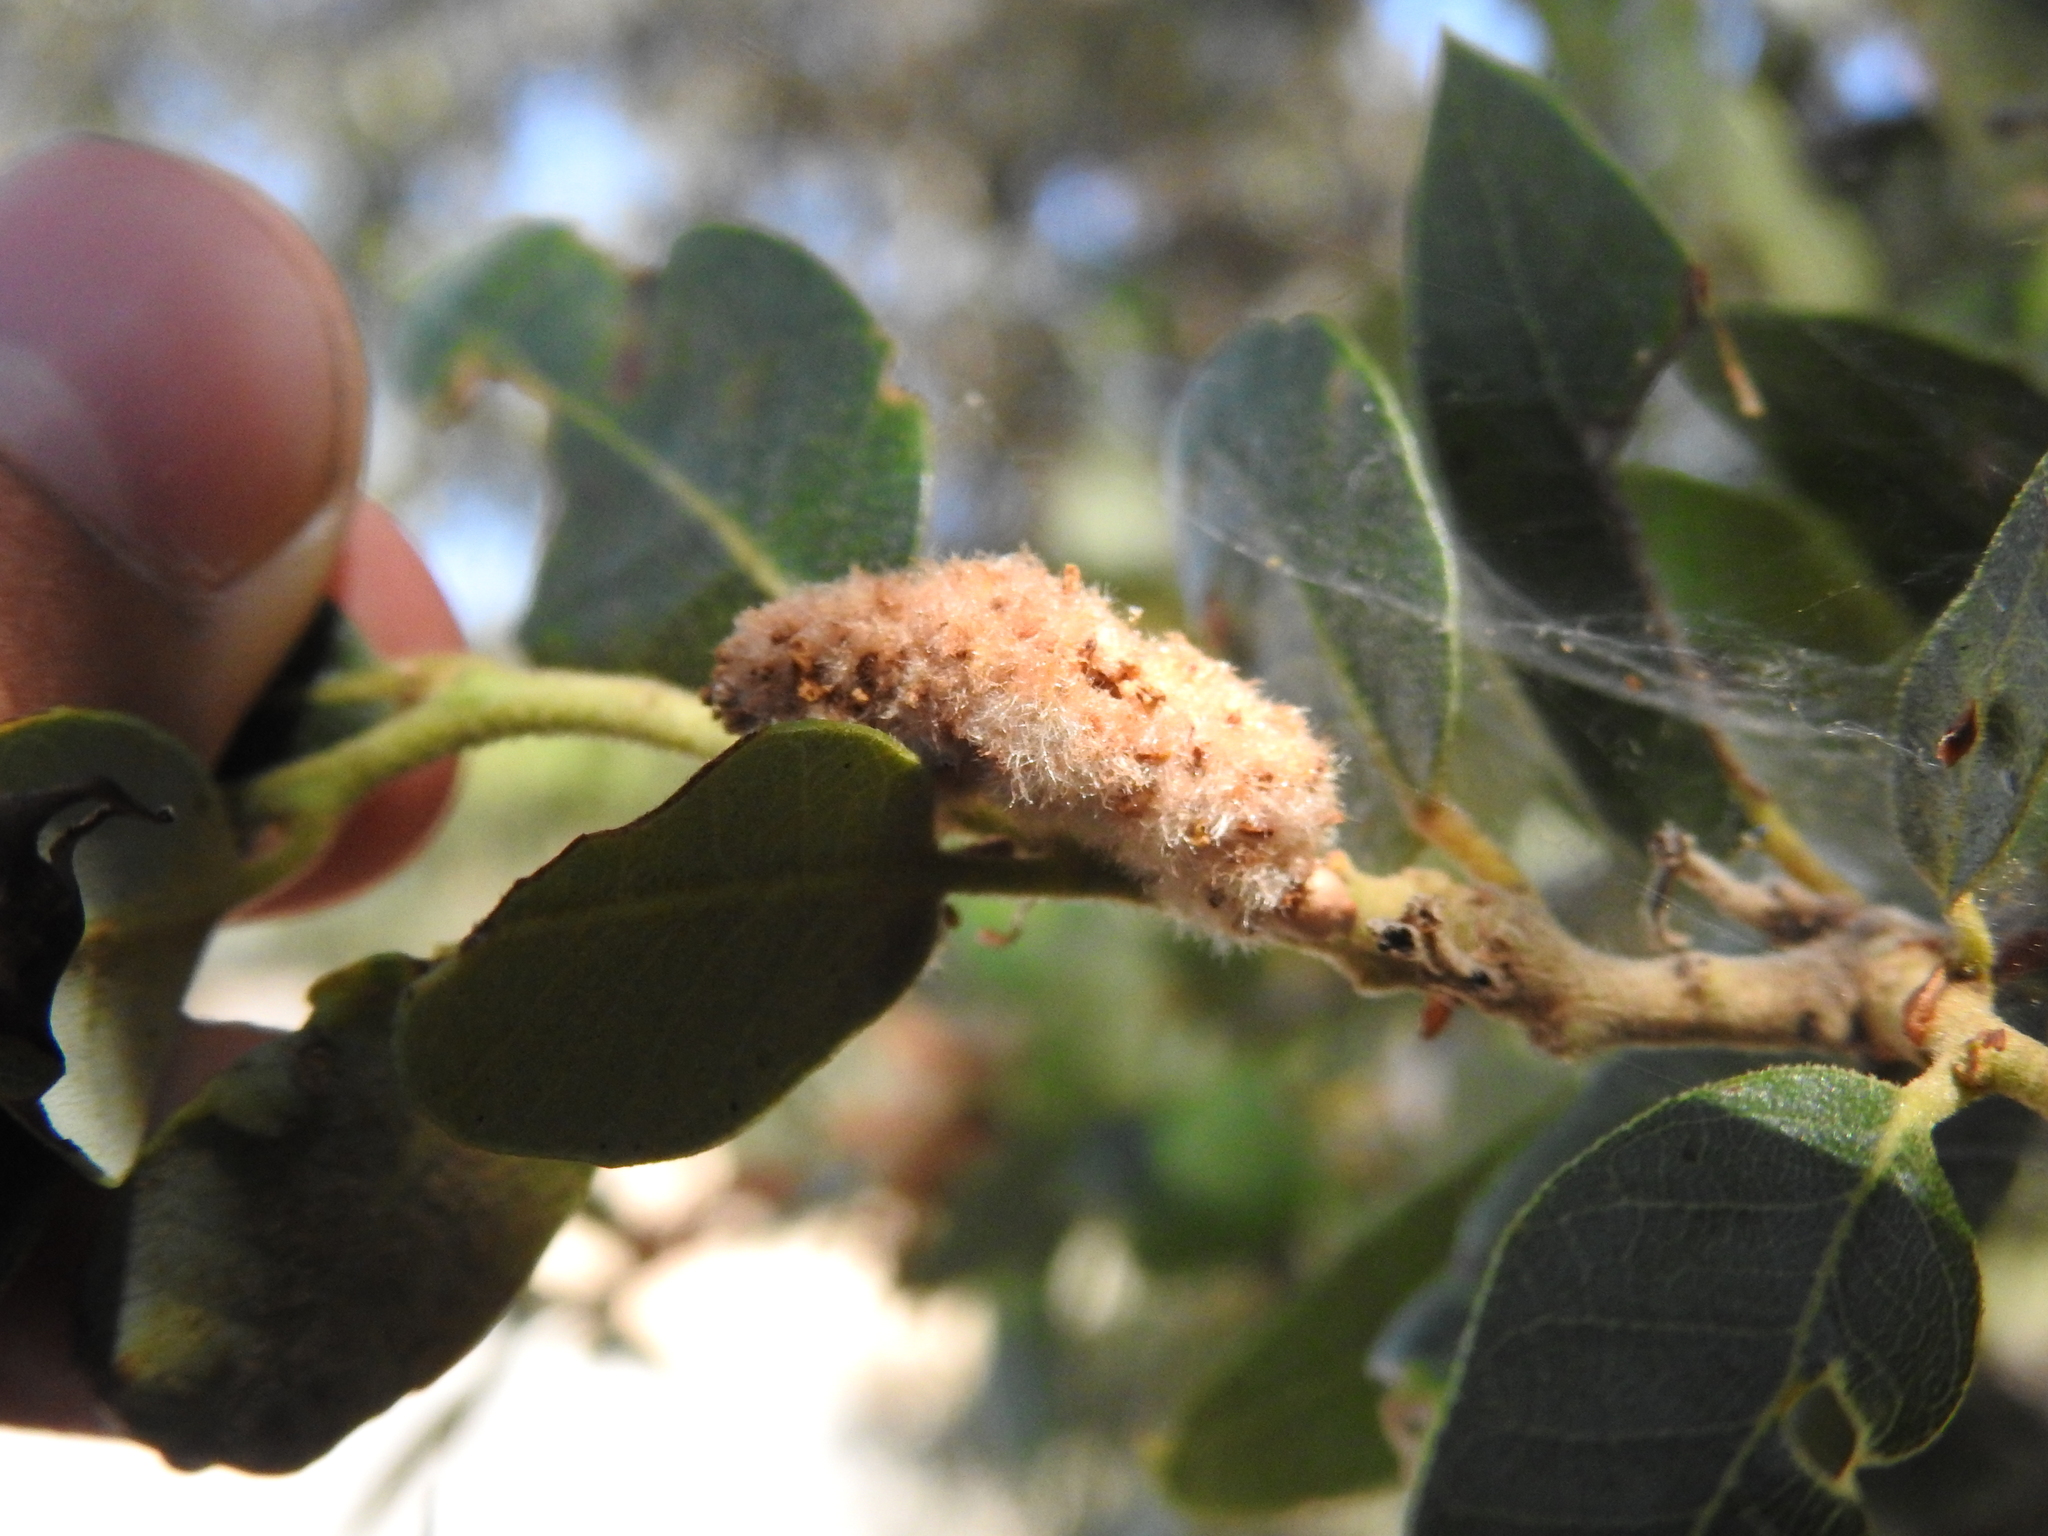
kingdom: Animalia
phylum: Arthropoda
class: Insecta
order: Hymenoptera
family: Cynipidae
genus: Heteroecus
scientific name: Heteroecus
